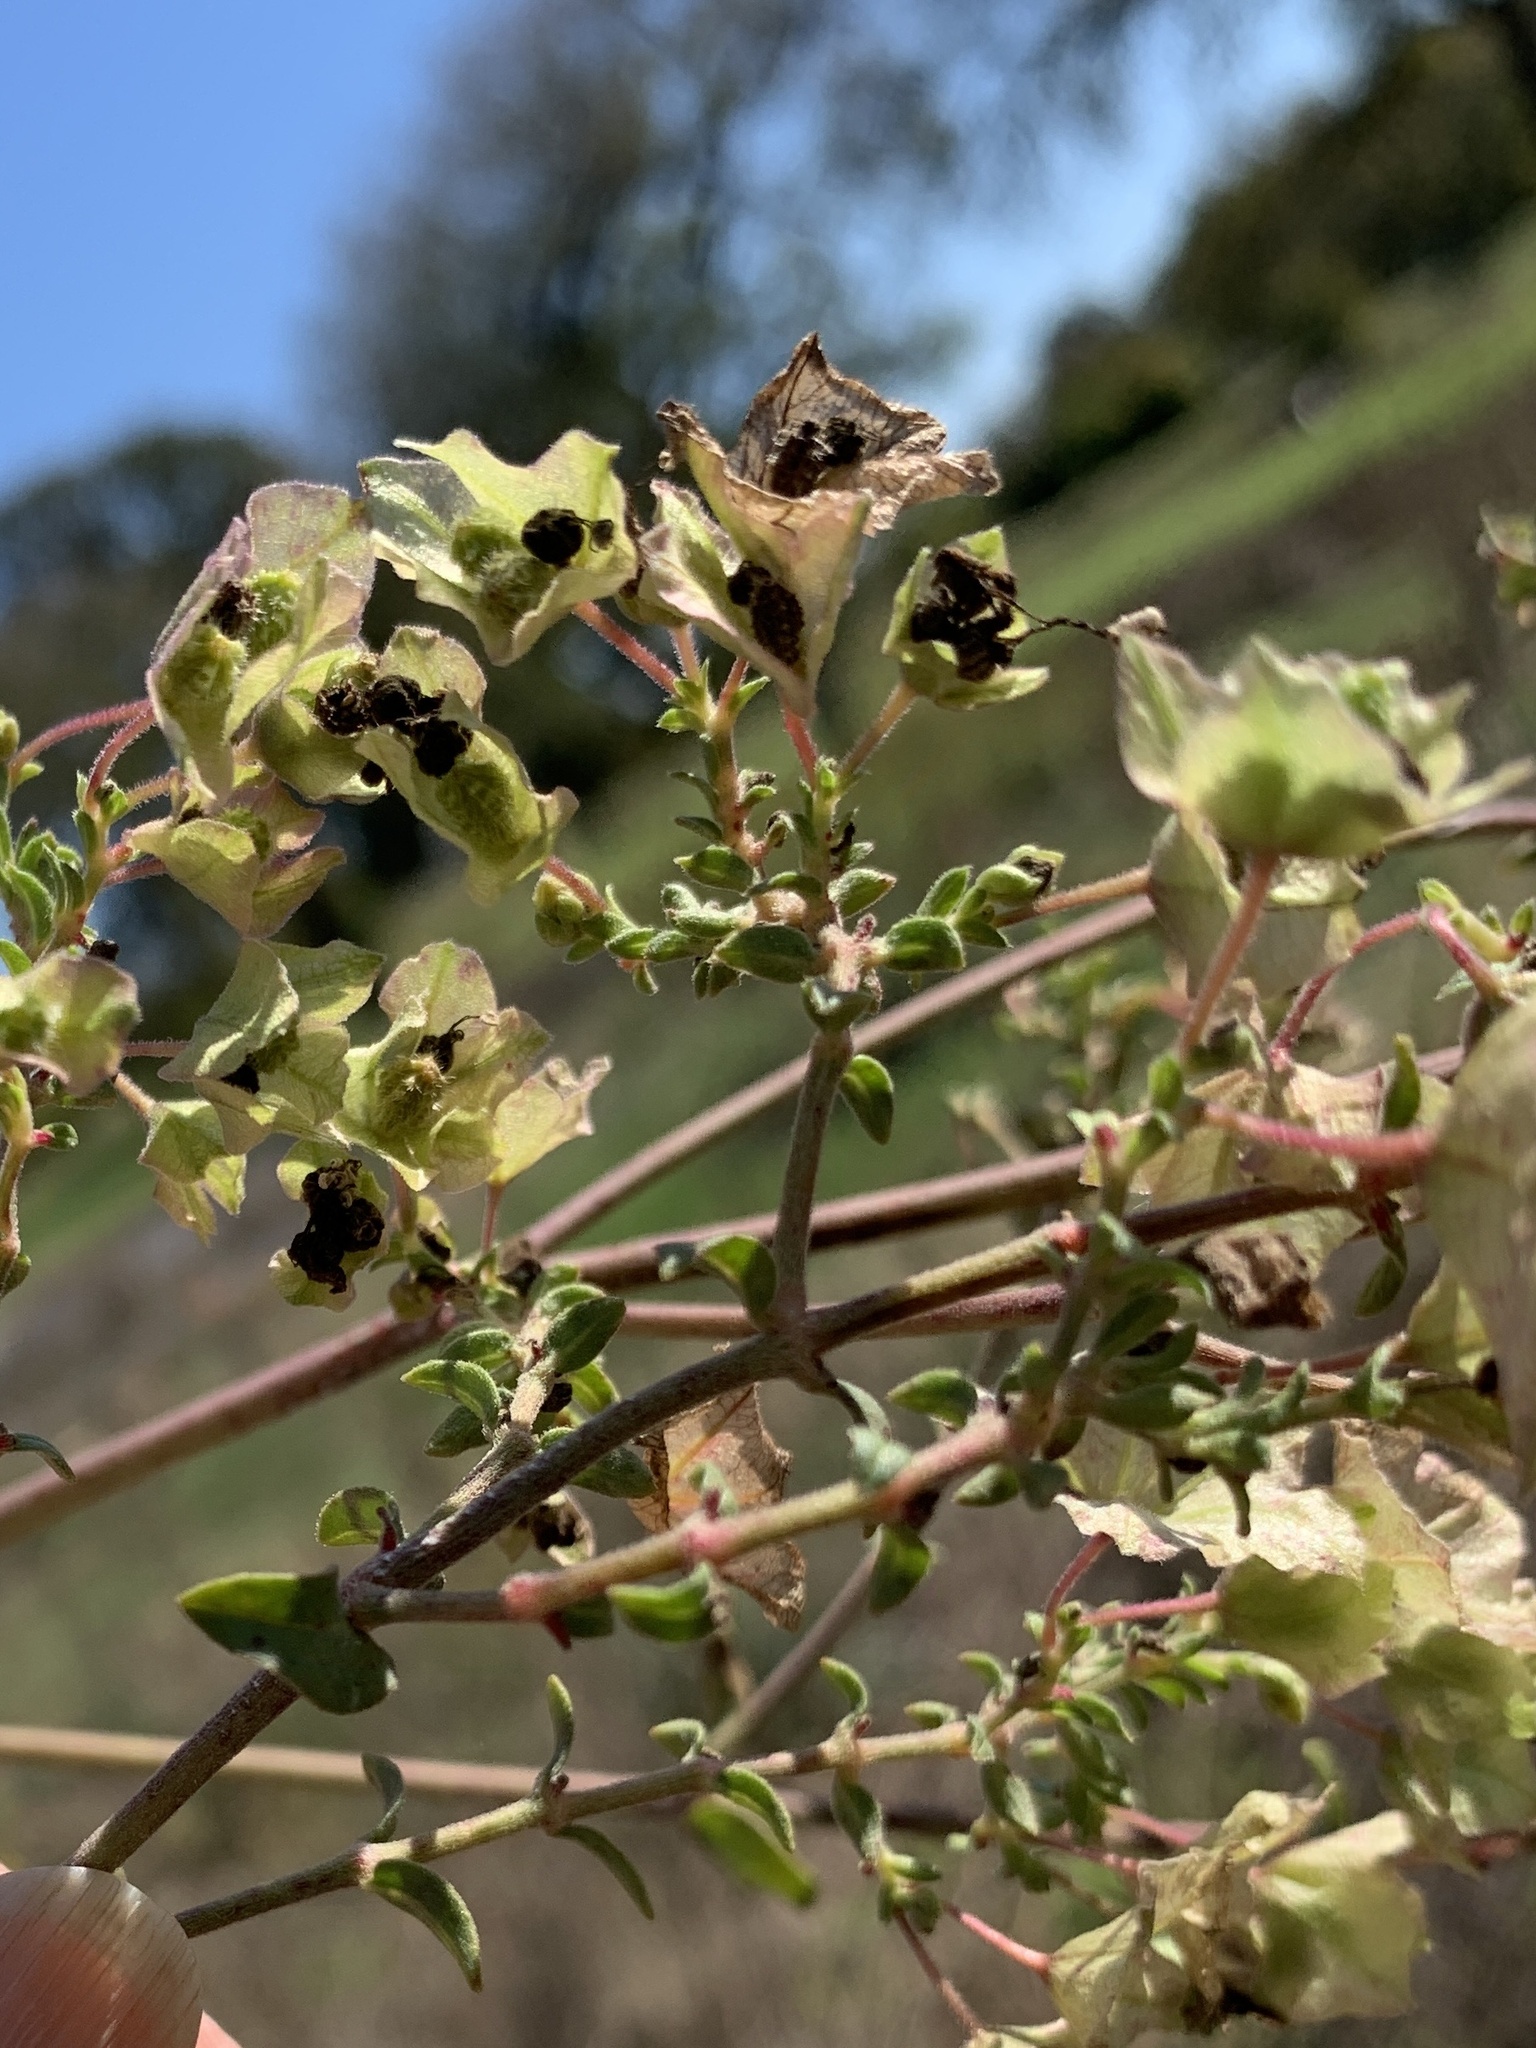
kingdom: Plantae
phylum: Tracheophyta
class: Magnoliopsida
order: Caryophyllales
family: Nyctaginaceae
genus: Mirabilis
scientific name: Mirabilis albida
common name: Hairy four-o'clock
